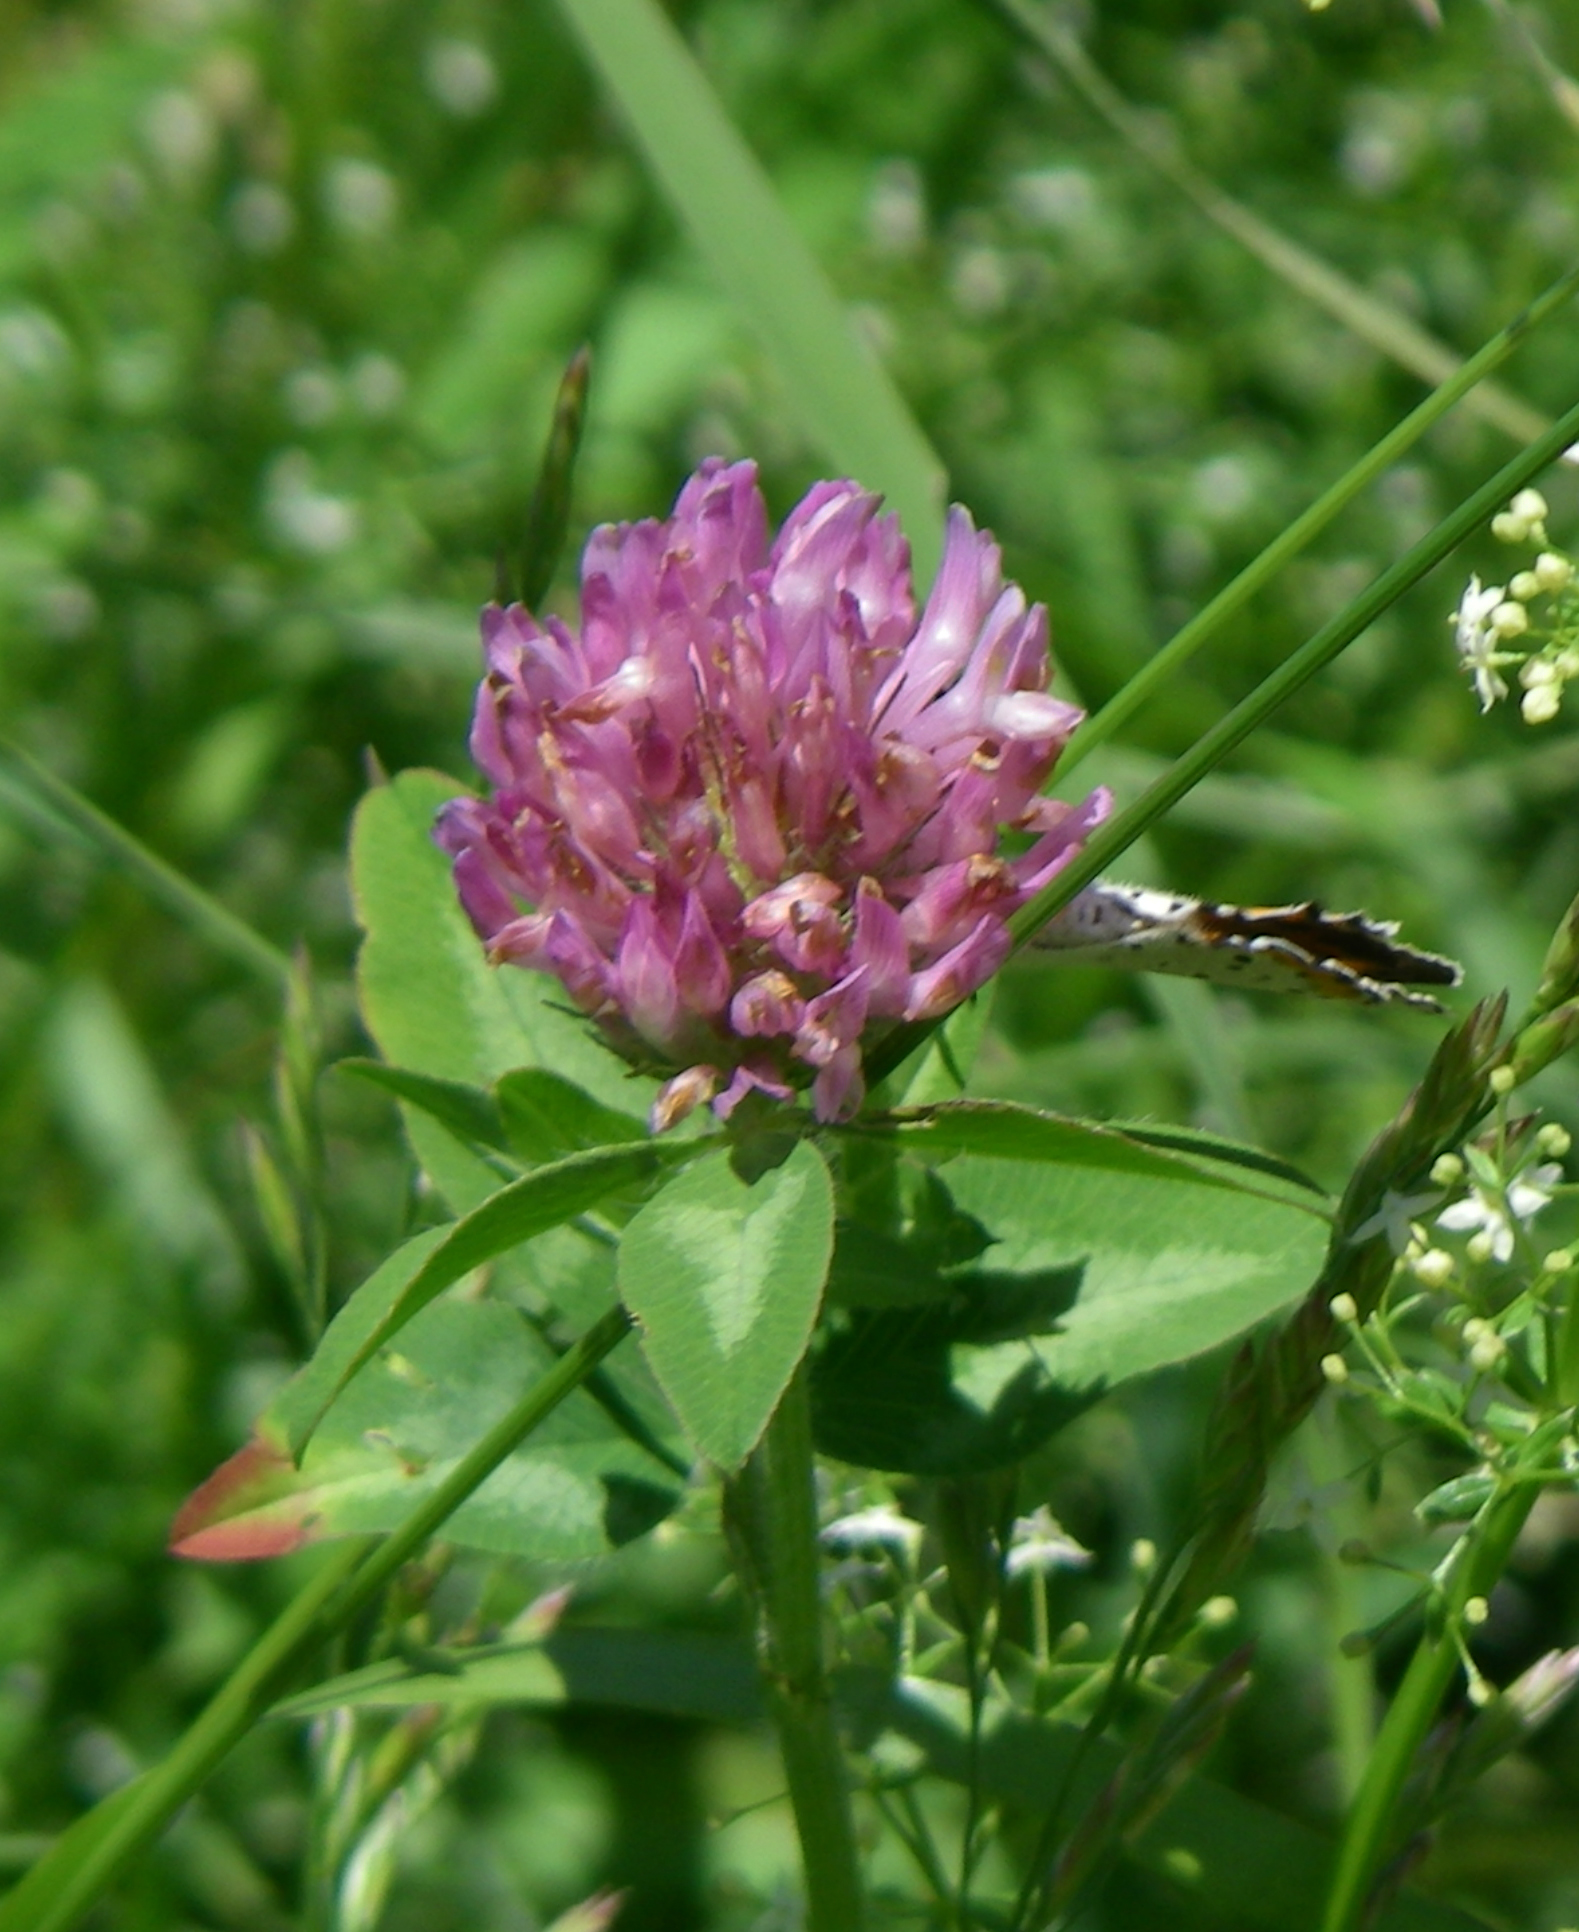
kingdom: Plantae
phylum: Tracheophyta
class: Magnoliopsida
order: Fabales
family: Fabaceae
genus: Trifolium
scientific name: Trifolium pratense
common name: Red clover
